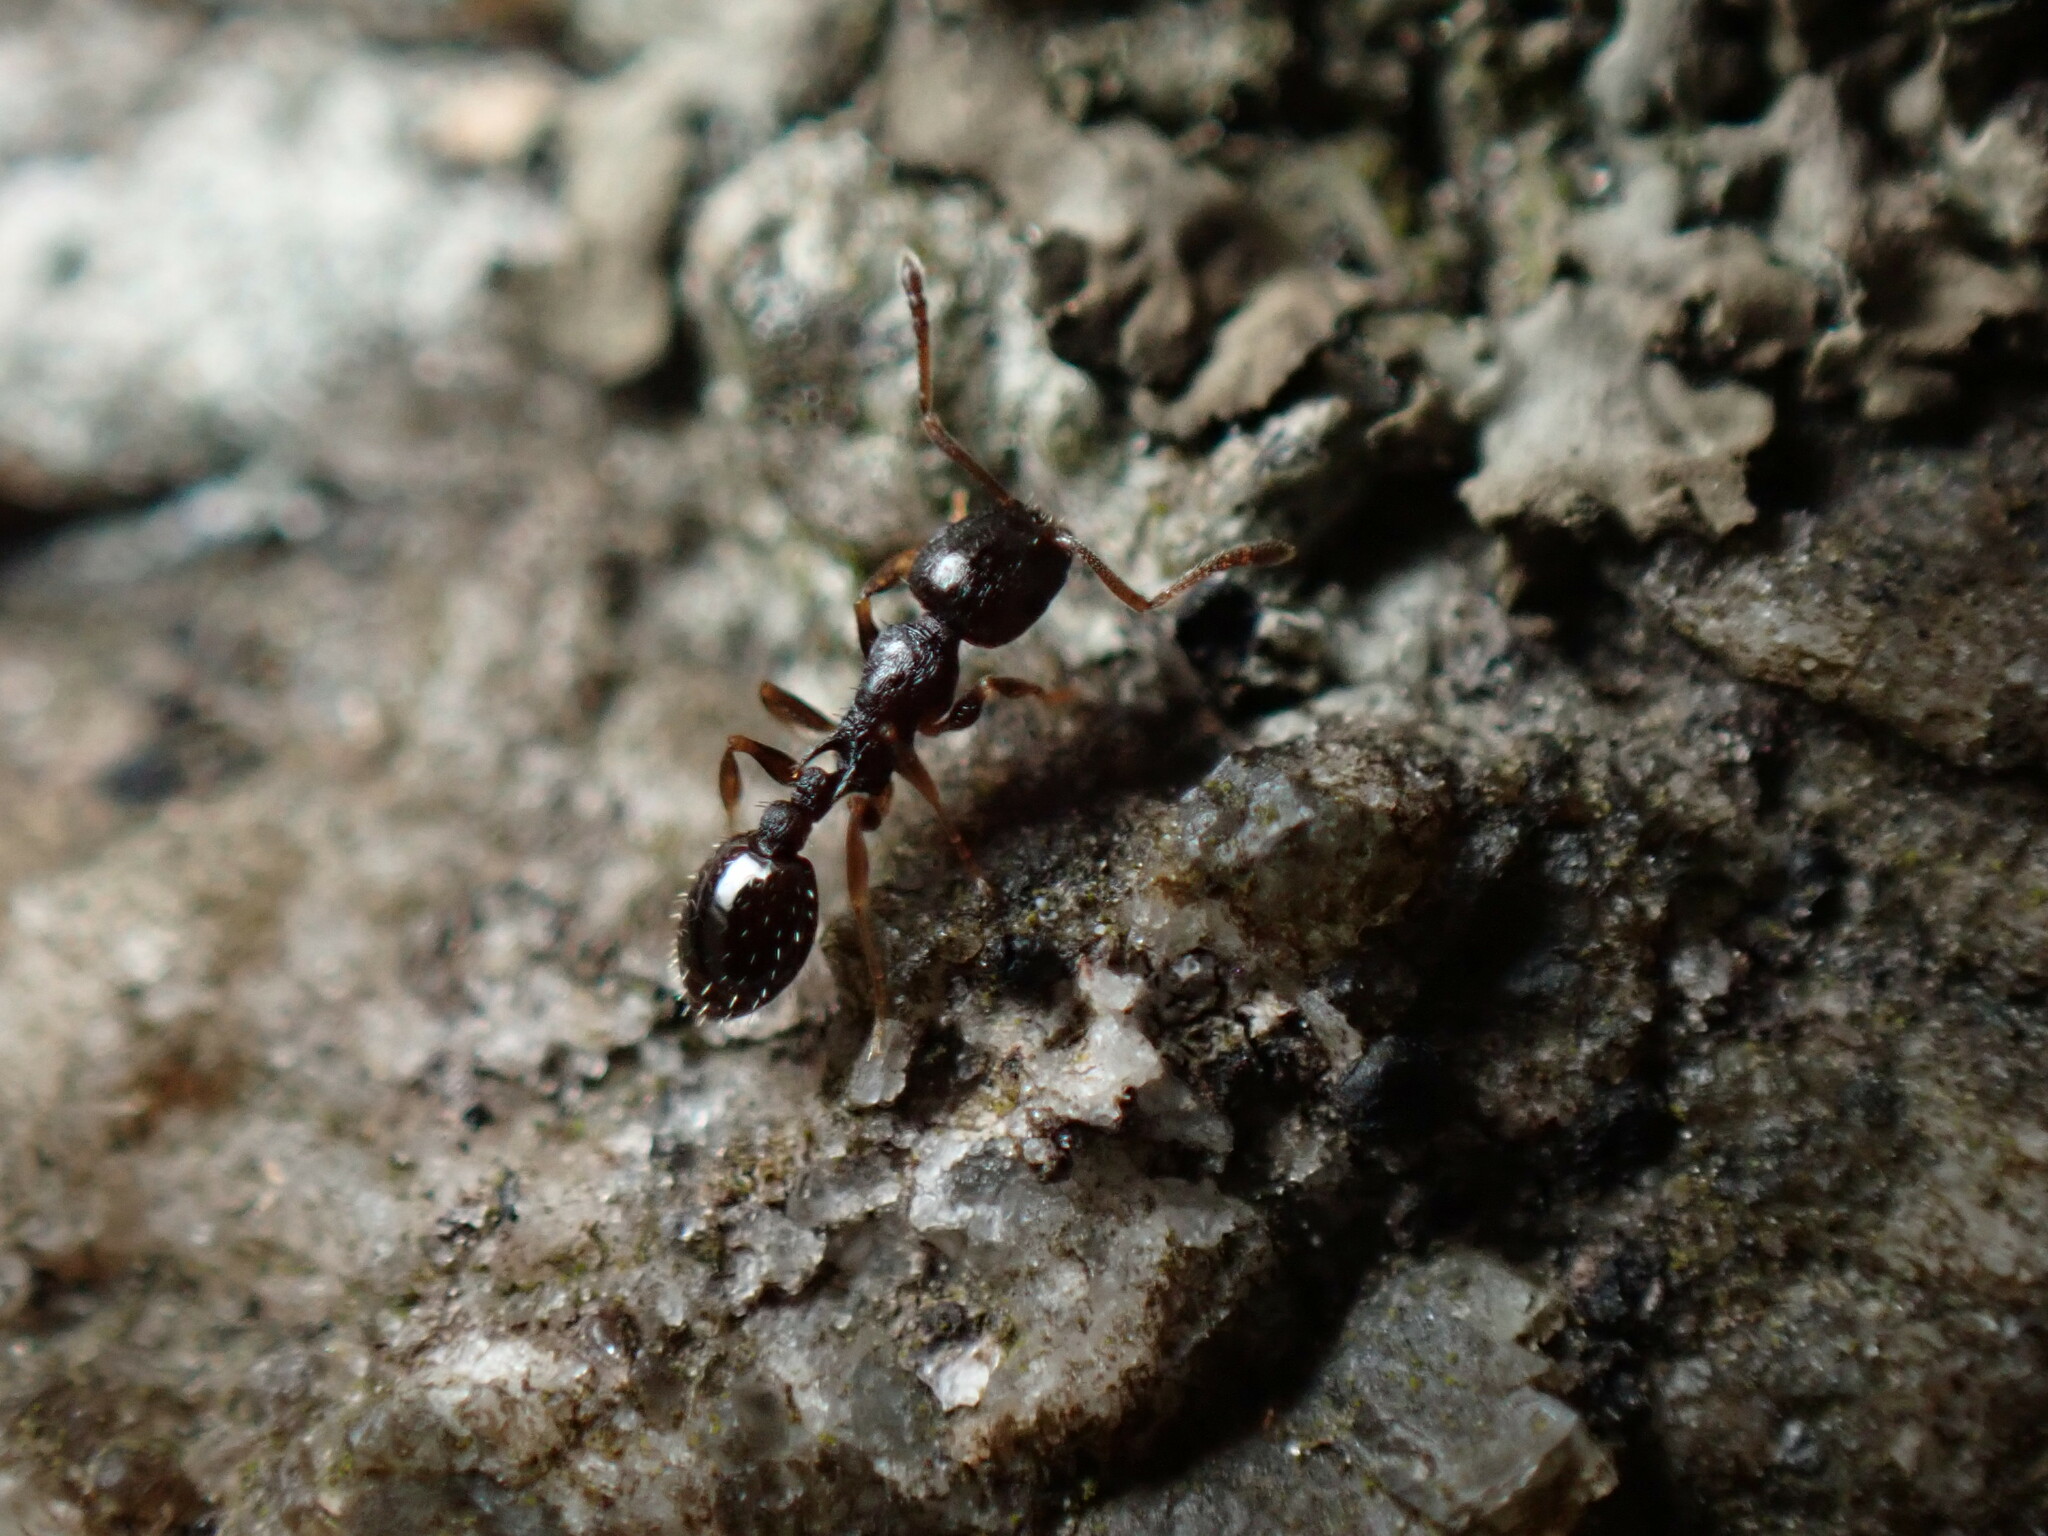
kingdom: Animalia
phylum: Arthropoda
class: Insecta
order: Hymenoptera
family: Formicidae
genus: Temnothorax
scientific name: Temnothorax longispinosus
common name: Long-spined acorn ant
